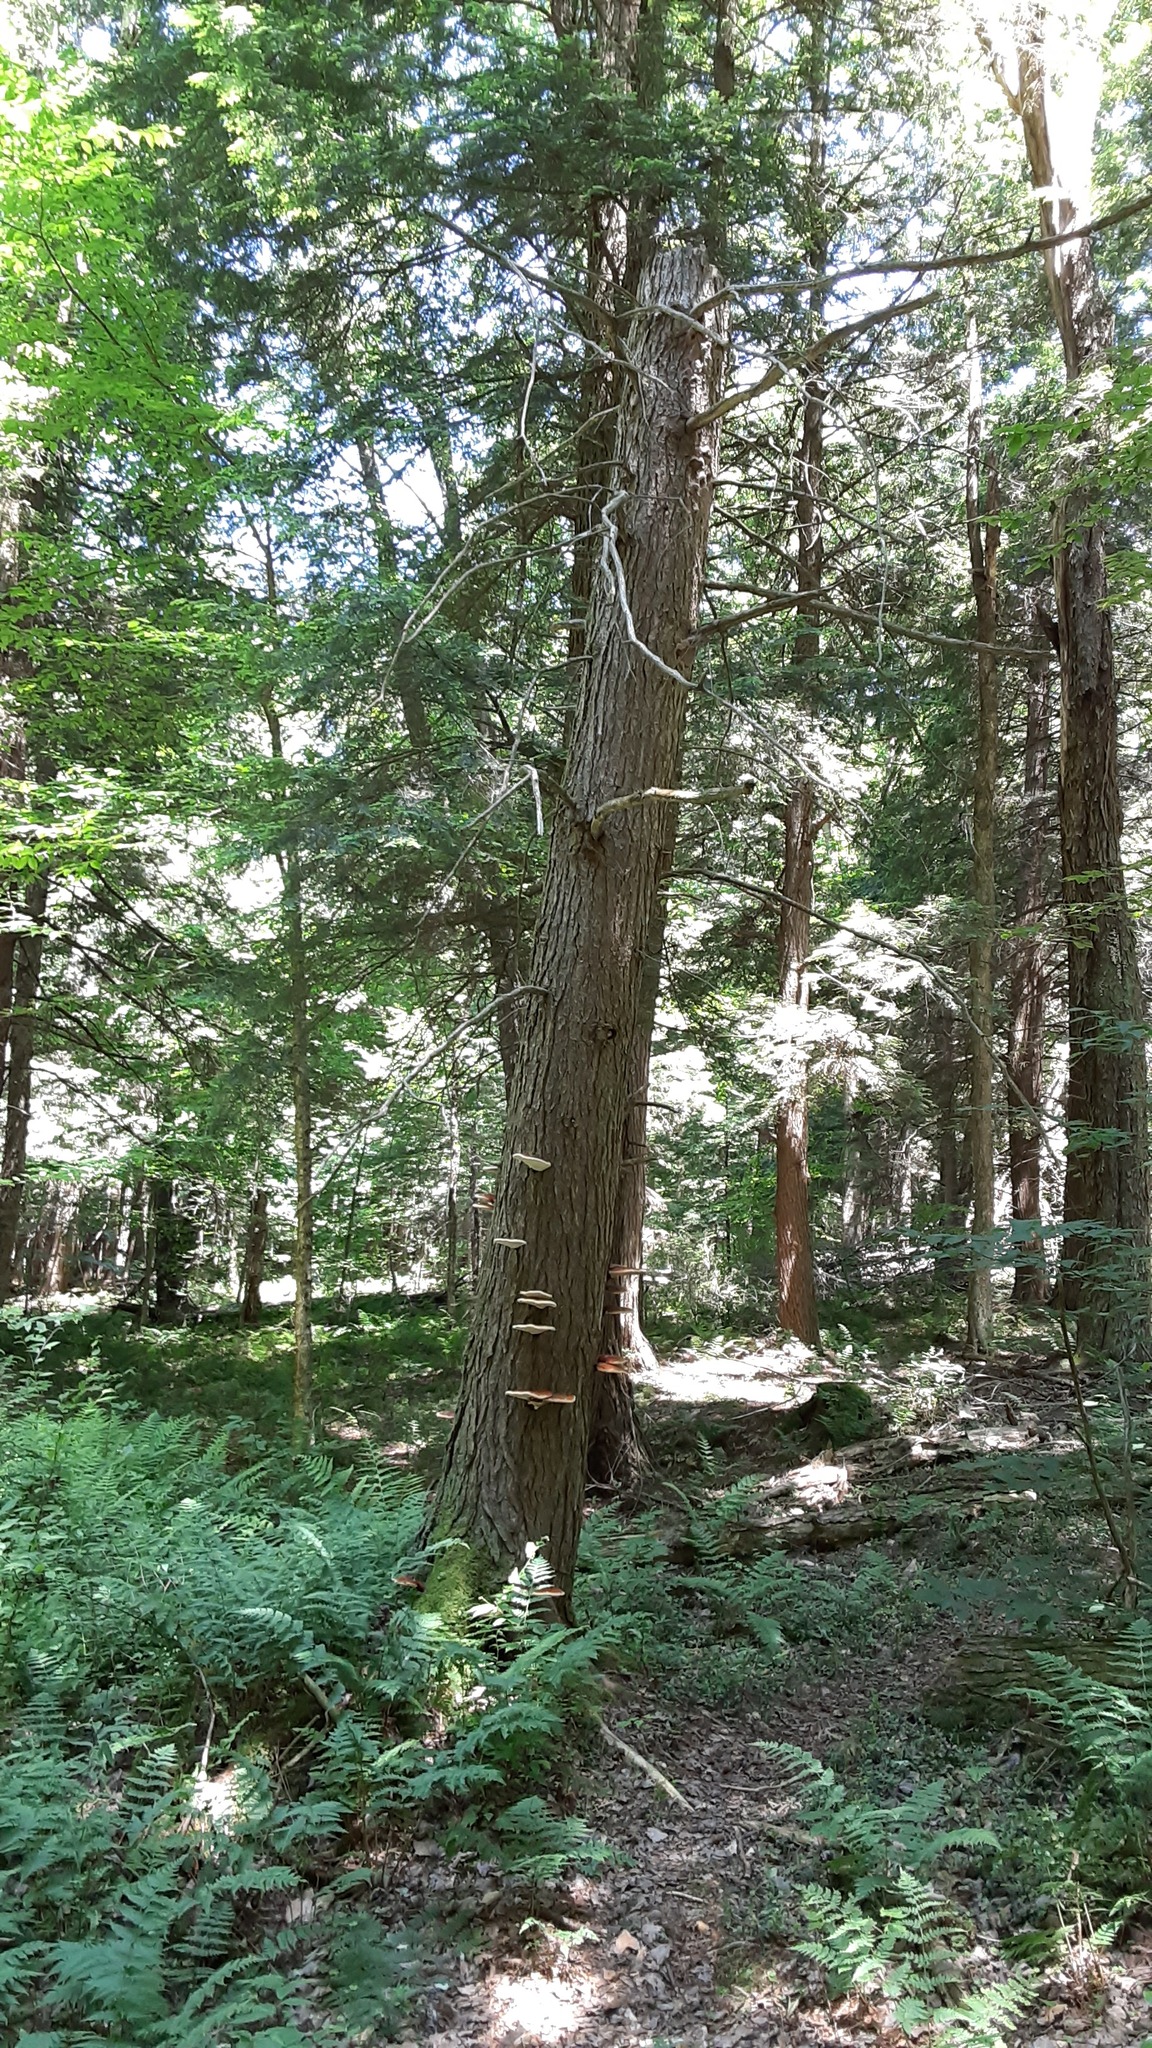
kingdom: Fungi
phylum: Basidiomycota
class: Agaricomycetes
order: Polyporales
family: Polyporaceae
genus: Ganoderma
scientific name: Ganoderma tsugae
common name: Hemlock varnish shelf
